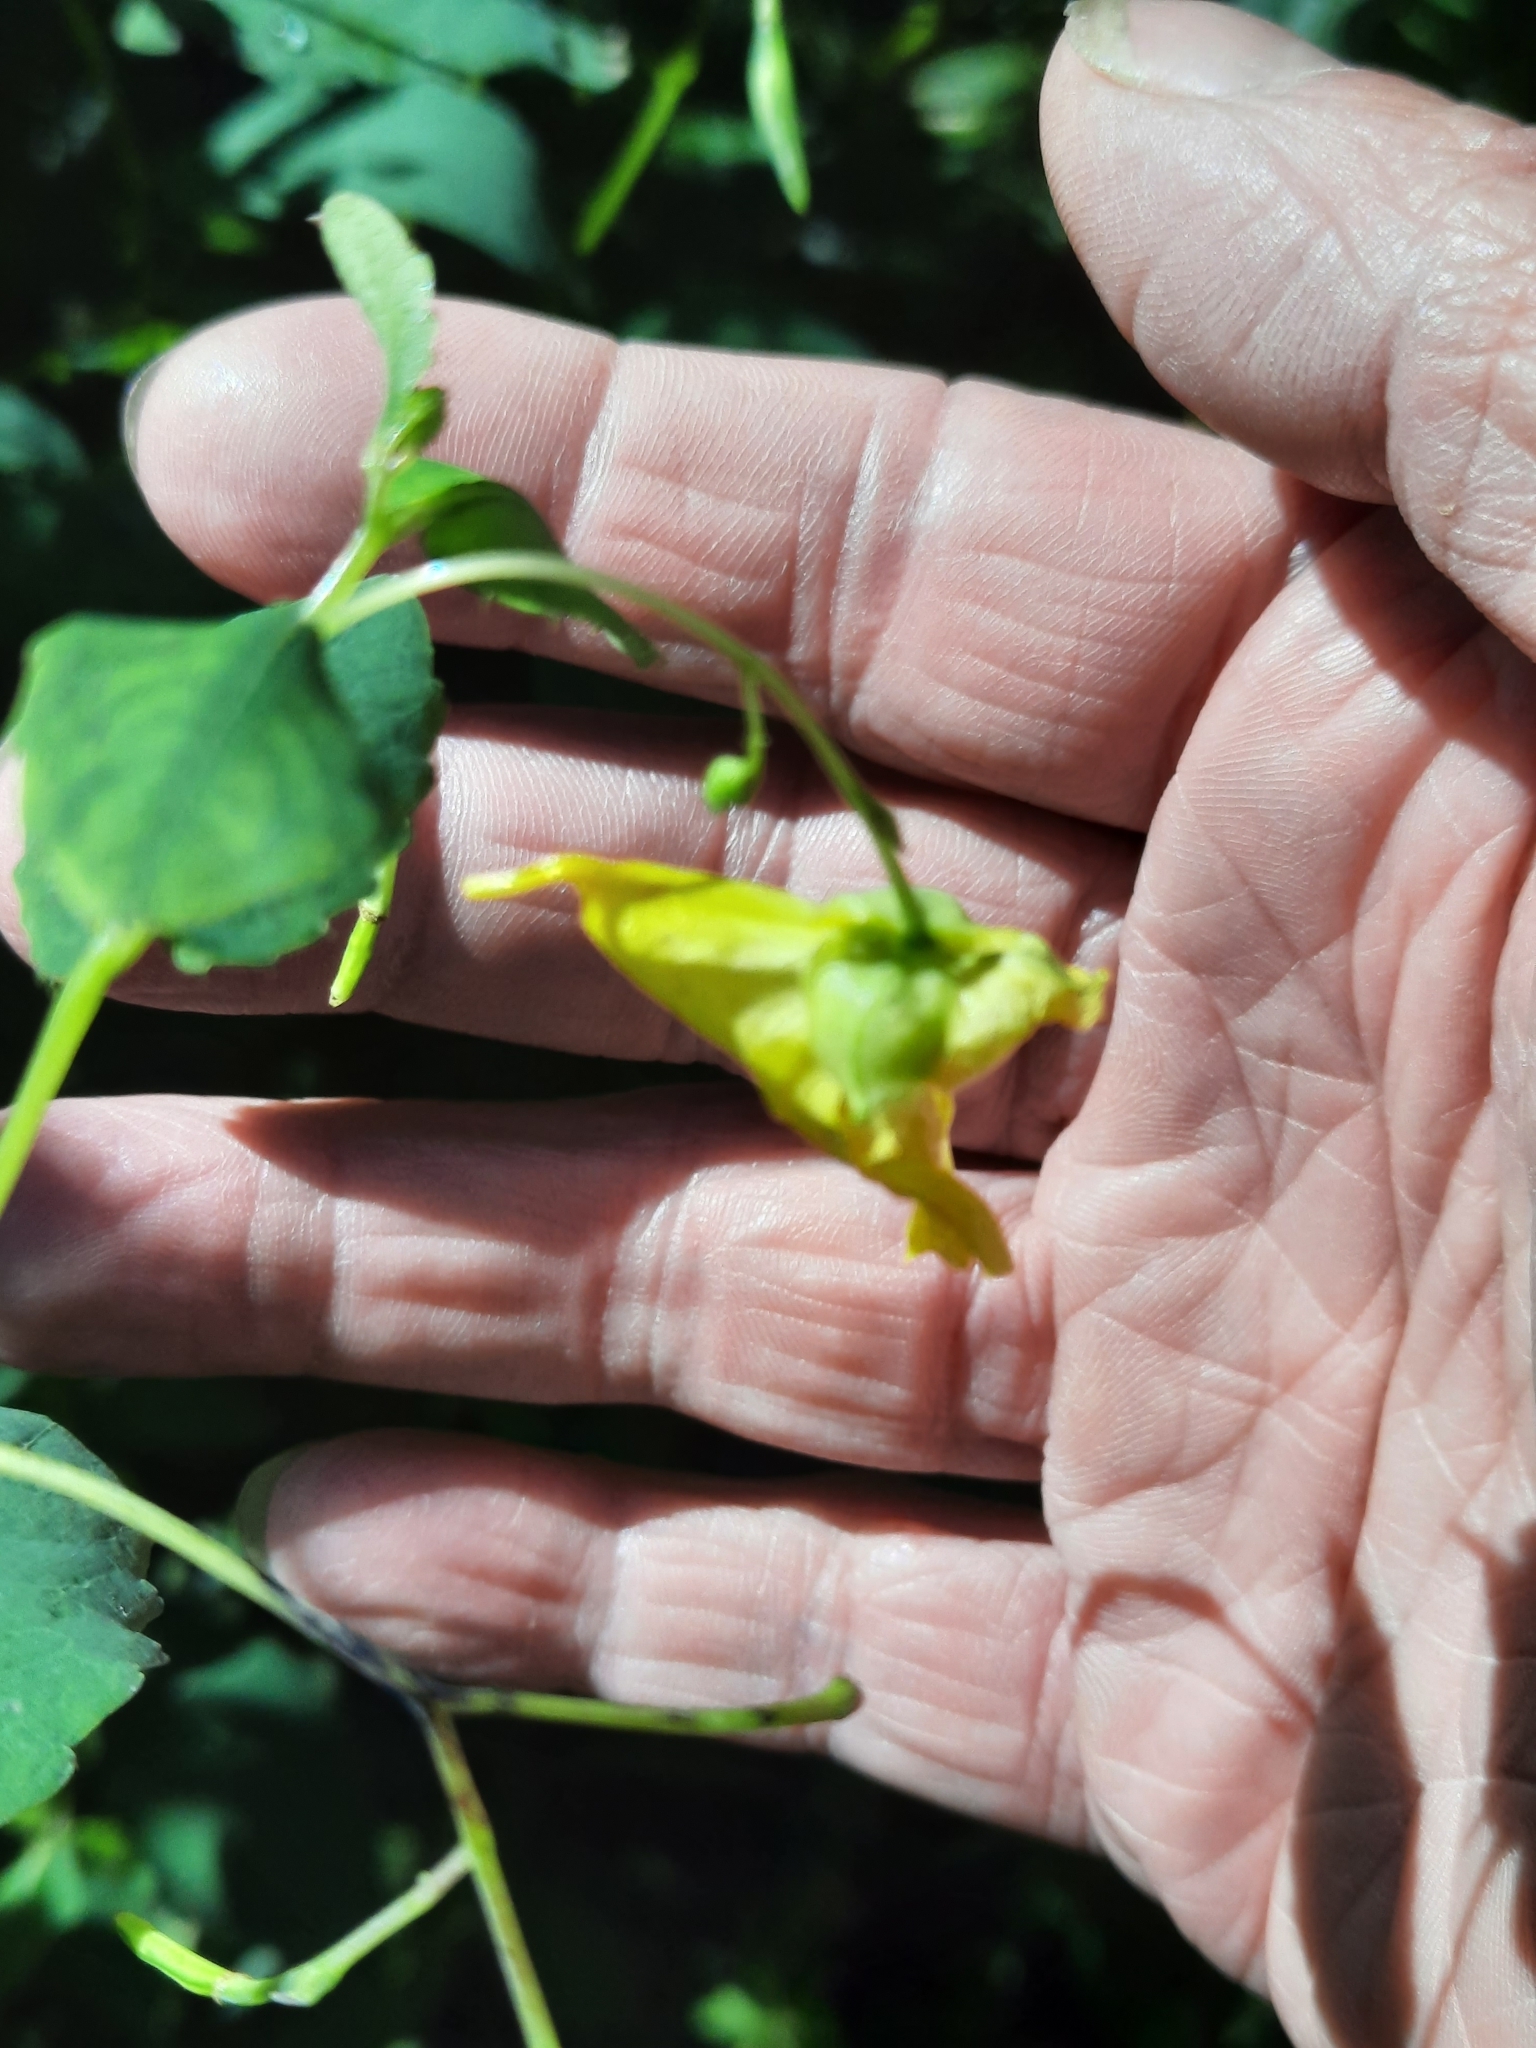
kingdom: Plantae
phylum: Tracheophyta
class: Magnoliopsida
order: Ericales
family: Balsaminaceae
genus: Impatiens
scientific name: Impatiens pallida
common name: Pale snapweed
